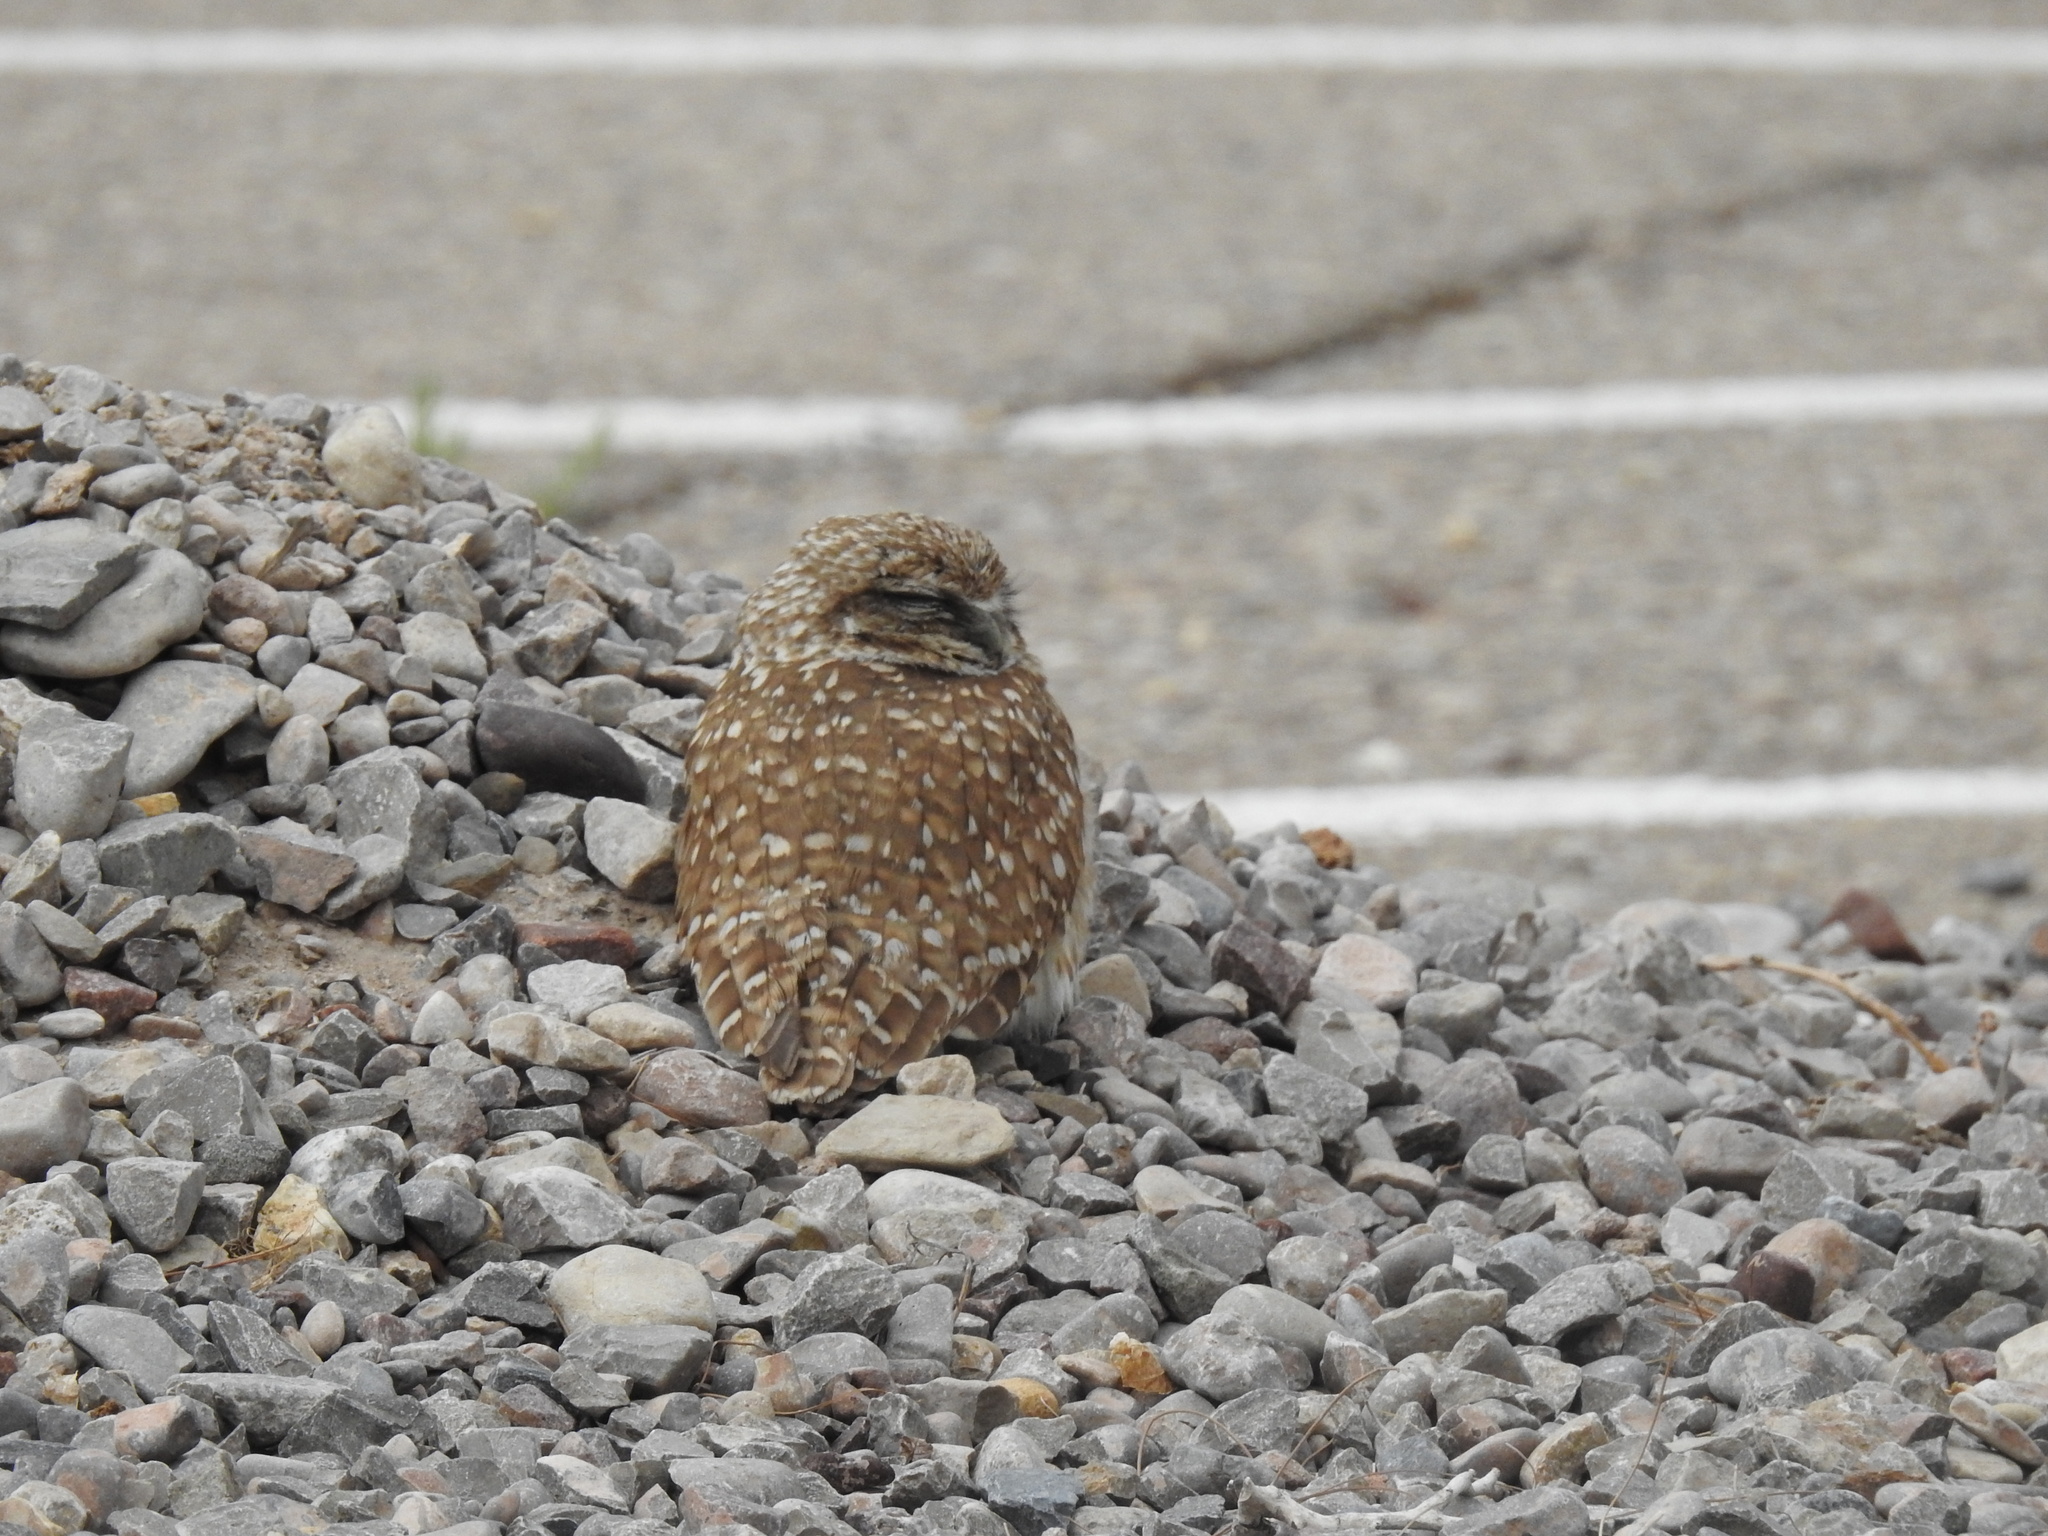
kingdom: Animalia
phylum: Chordata
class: Aves
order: Strigiformes
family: Strigidae
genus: Athene
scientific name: Athene cunicularia
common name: Burrowing owl
